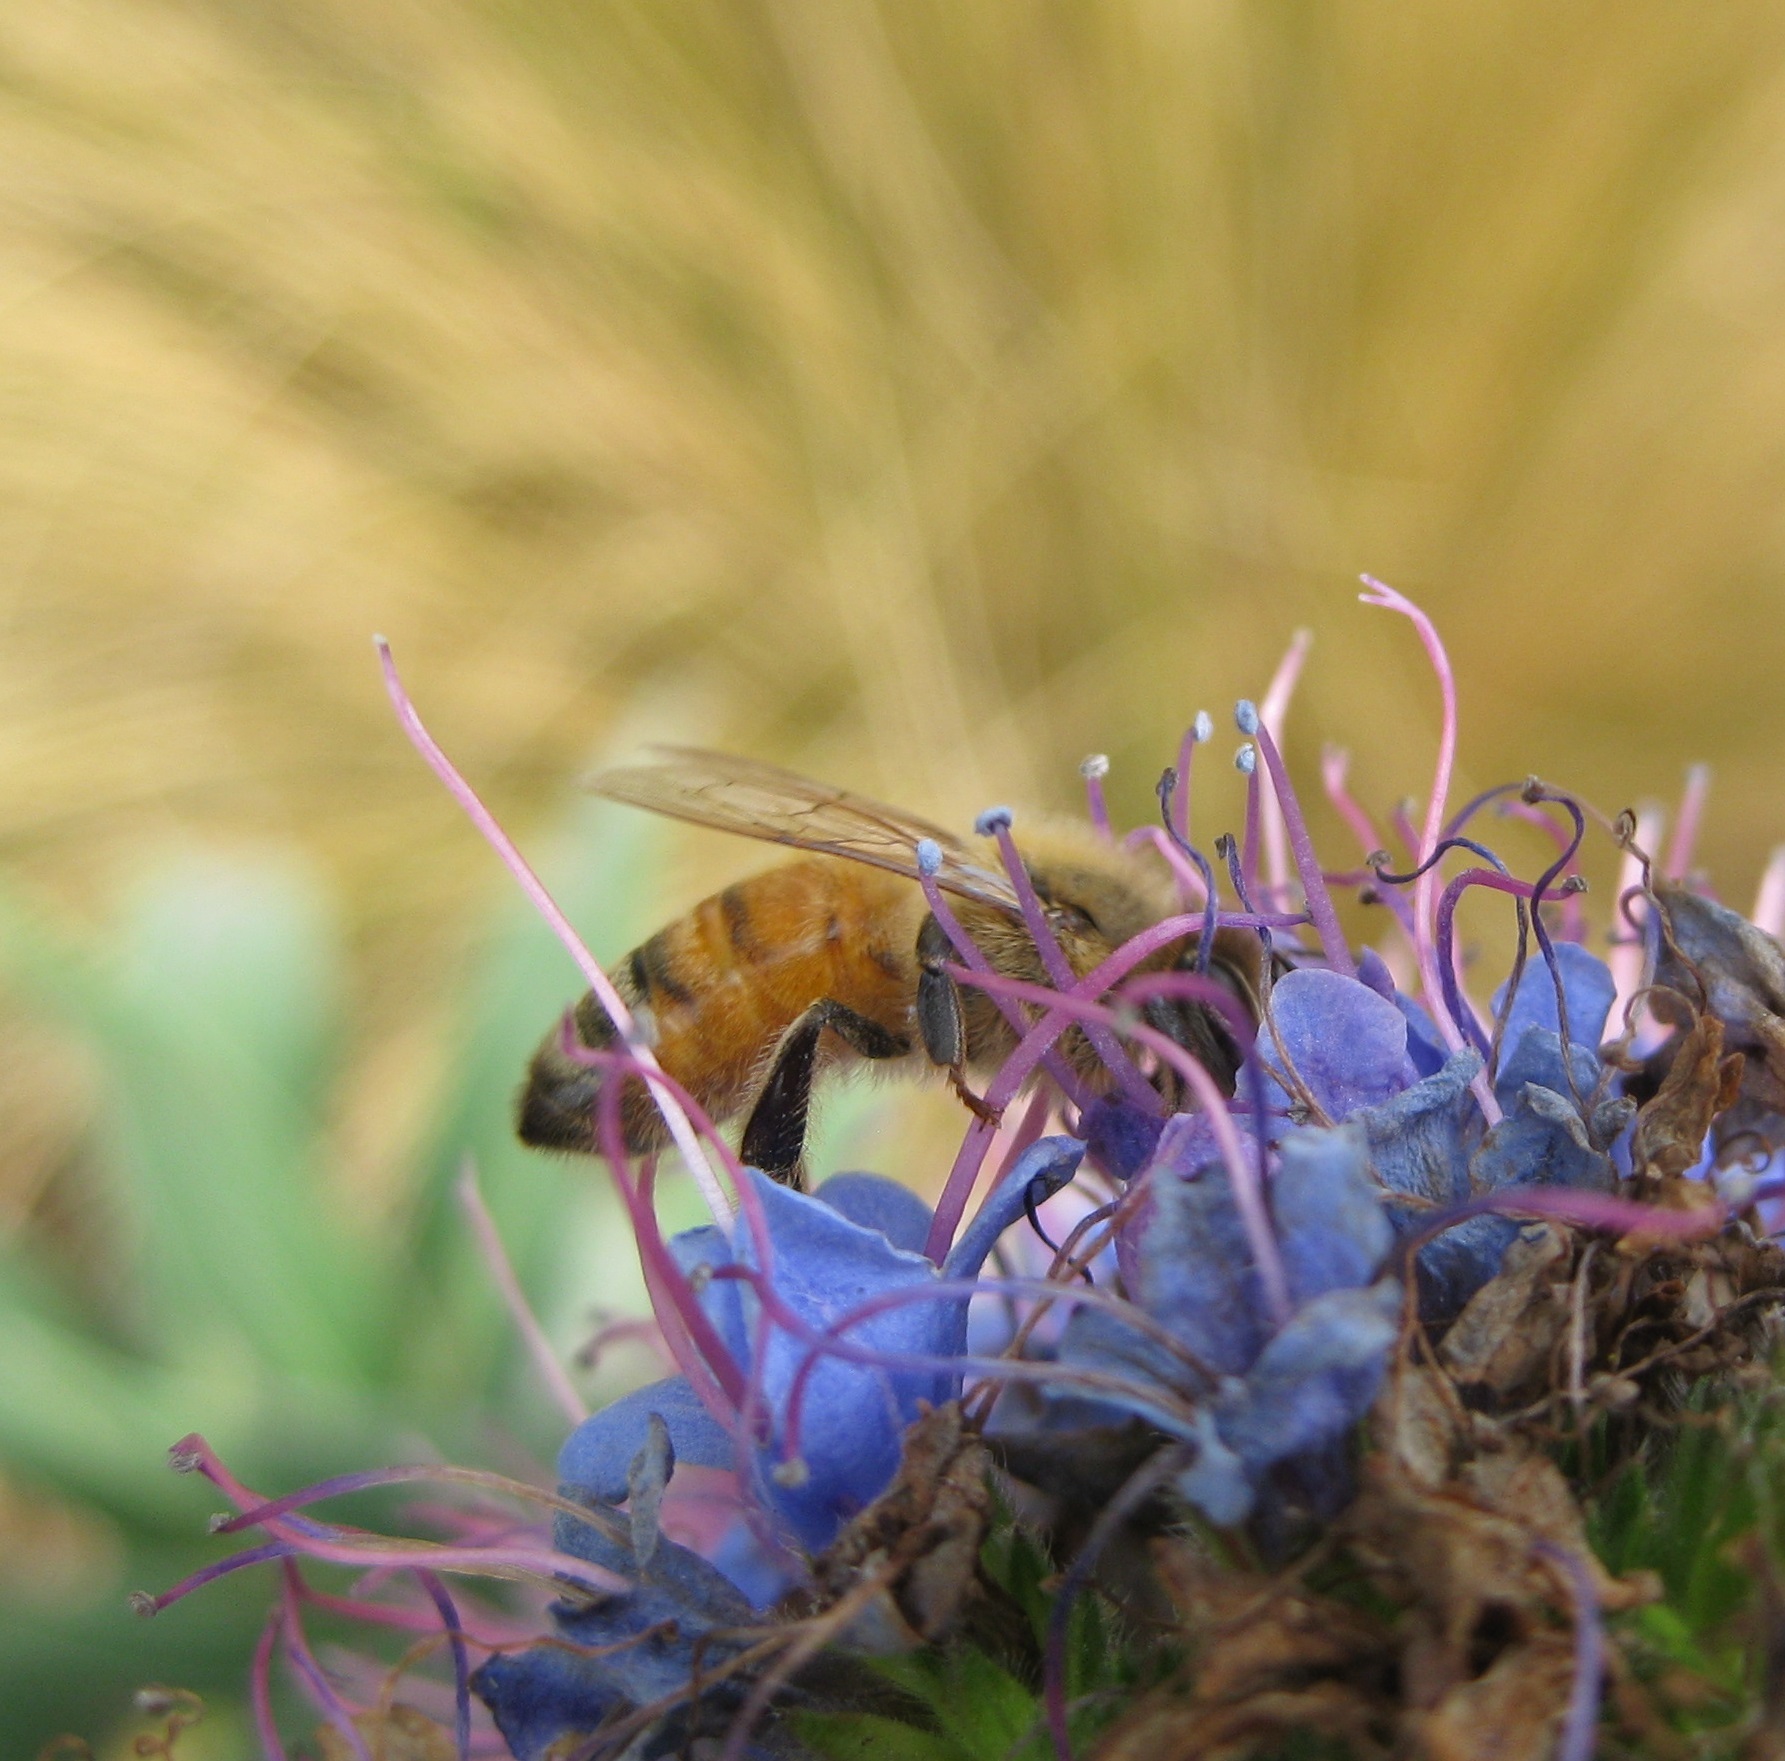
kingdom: Animalia
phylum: Arthropoda
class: Insecta
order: Hymenoptera
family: Apidae
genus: Apis
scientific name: Apis mellifera
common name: Honey bee
